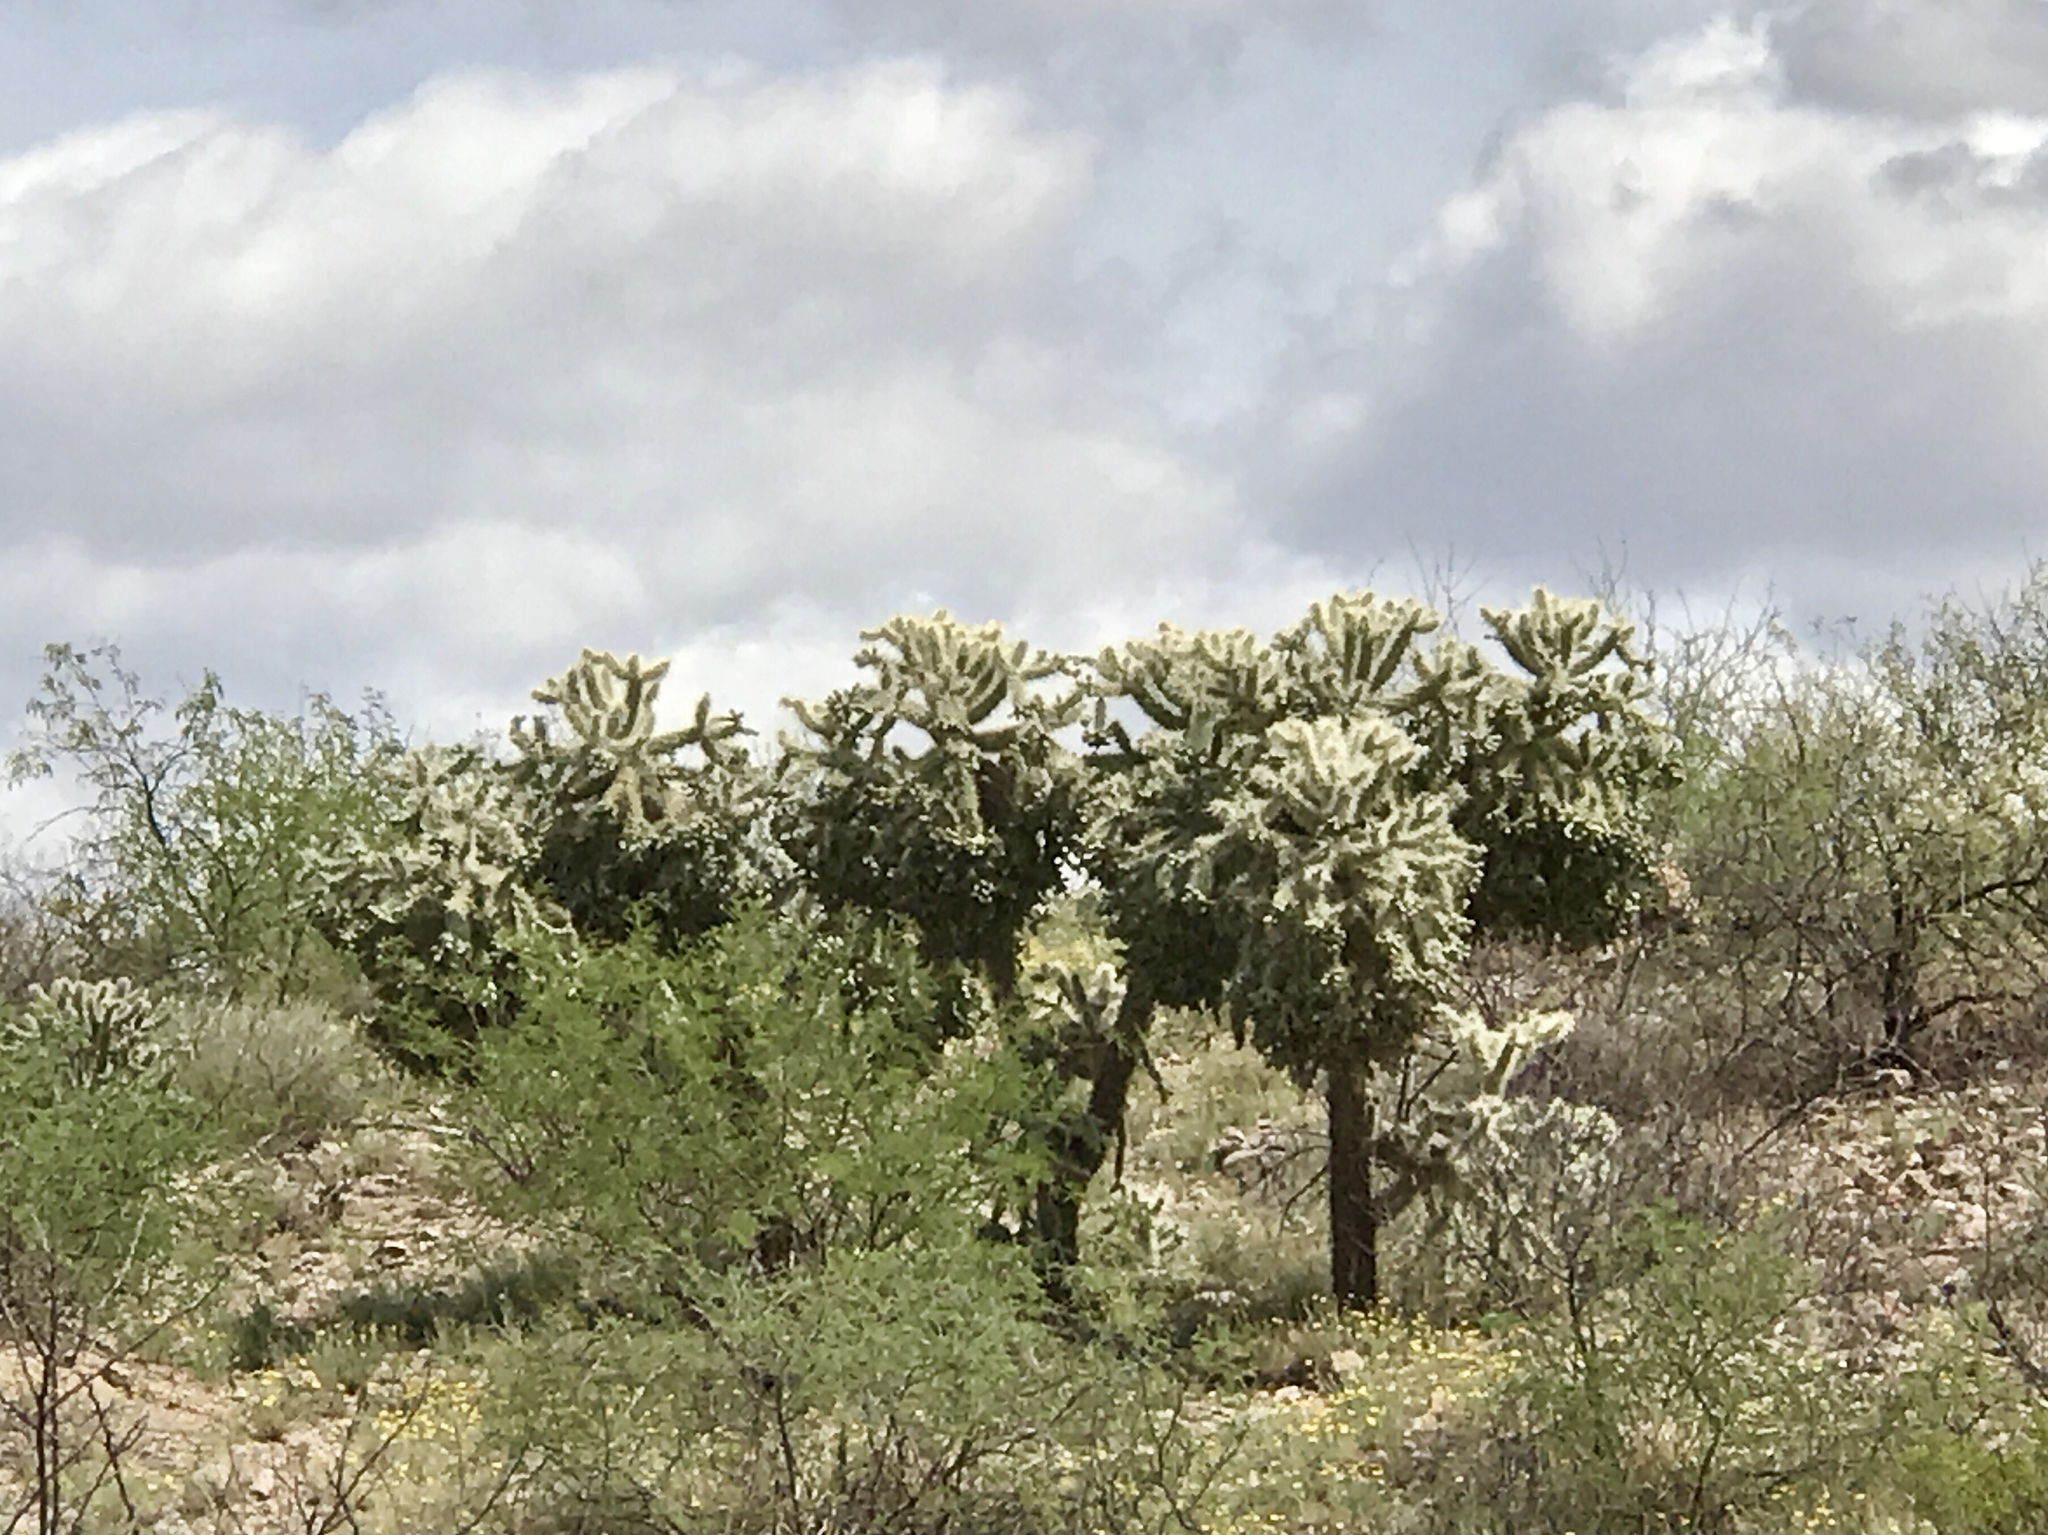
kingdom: Plantae
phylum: Tracheophyta
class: Magnoliopsida
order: Caryophyllales
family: Cactaceae
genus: Cylindropuntia
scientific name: Cylindropuntia fulgida
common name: Jumping cholla
